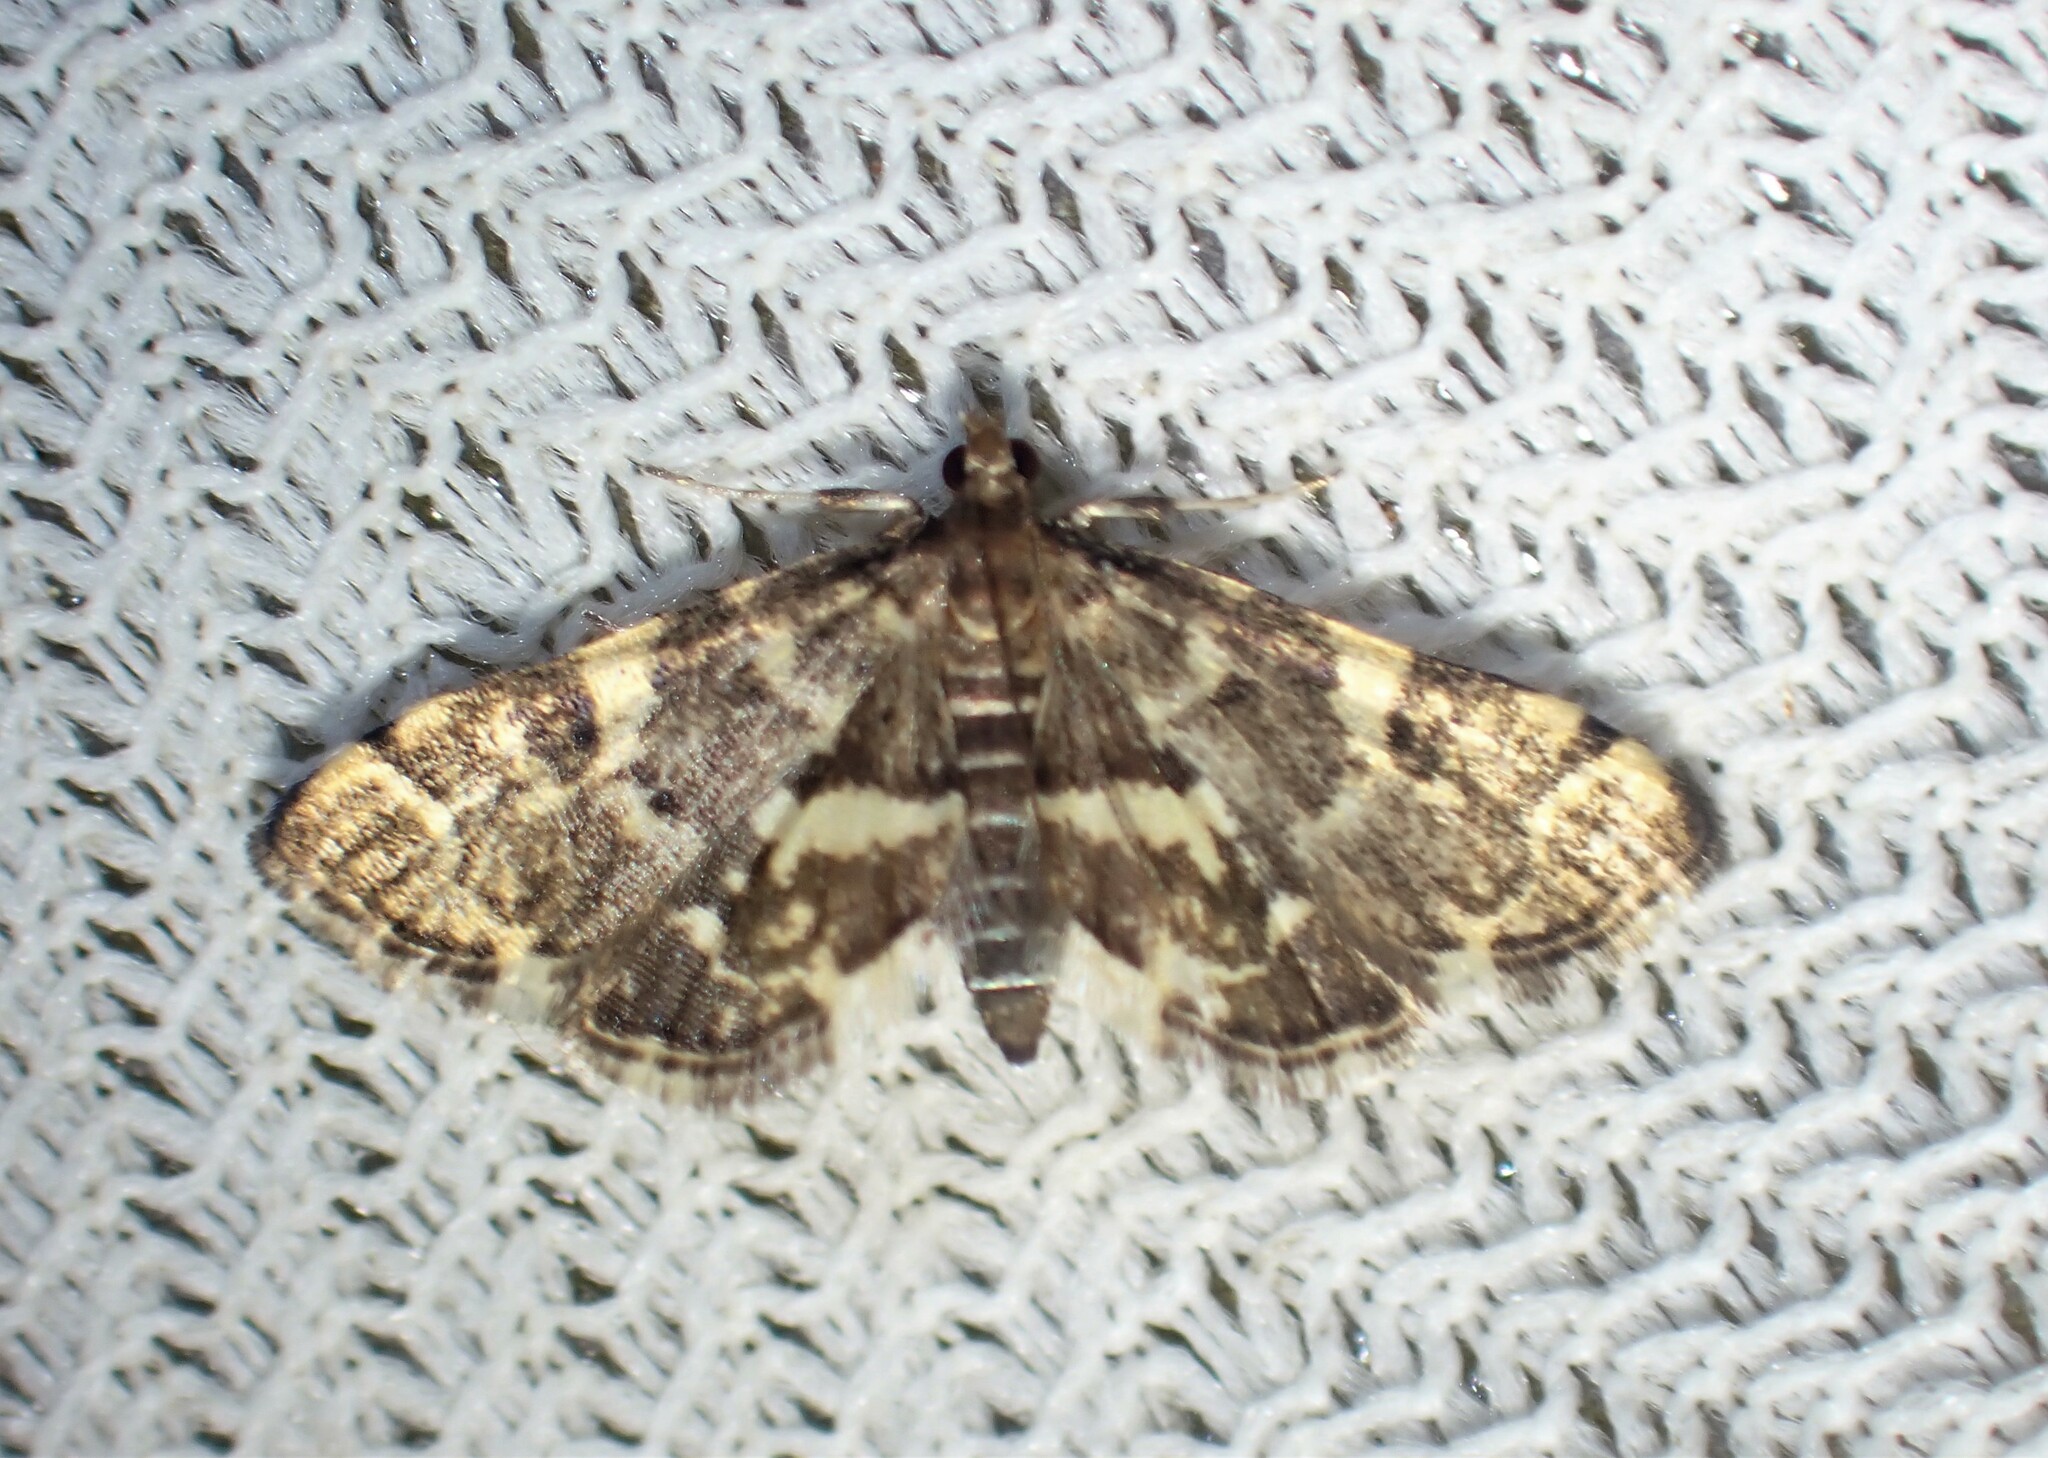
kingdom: Animalia
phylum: Arthropoda
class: Insecta
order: Lepidoptera
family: Crambidae
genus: Anageshna
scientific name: Anageshna primordialis
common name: Yellow-spotted webworm moth
